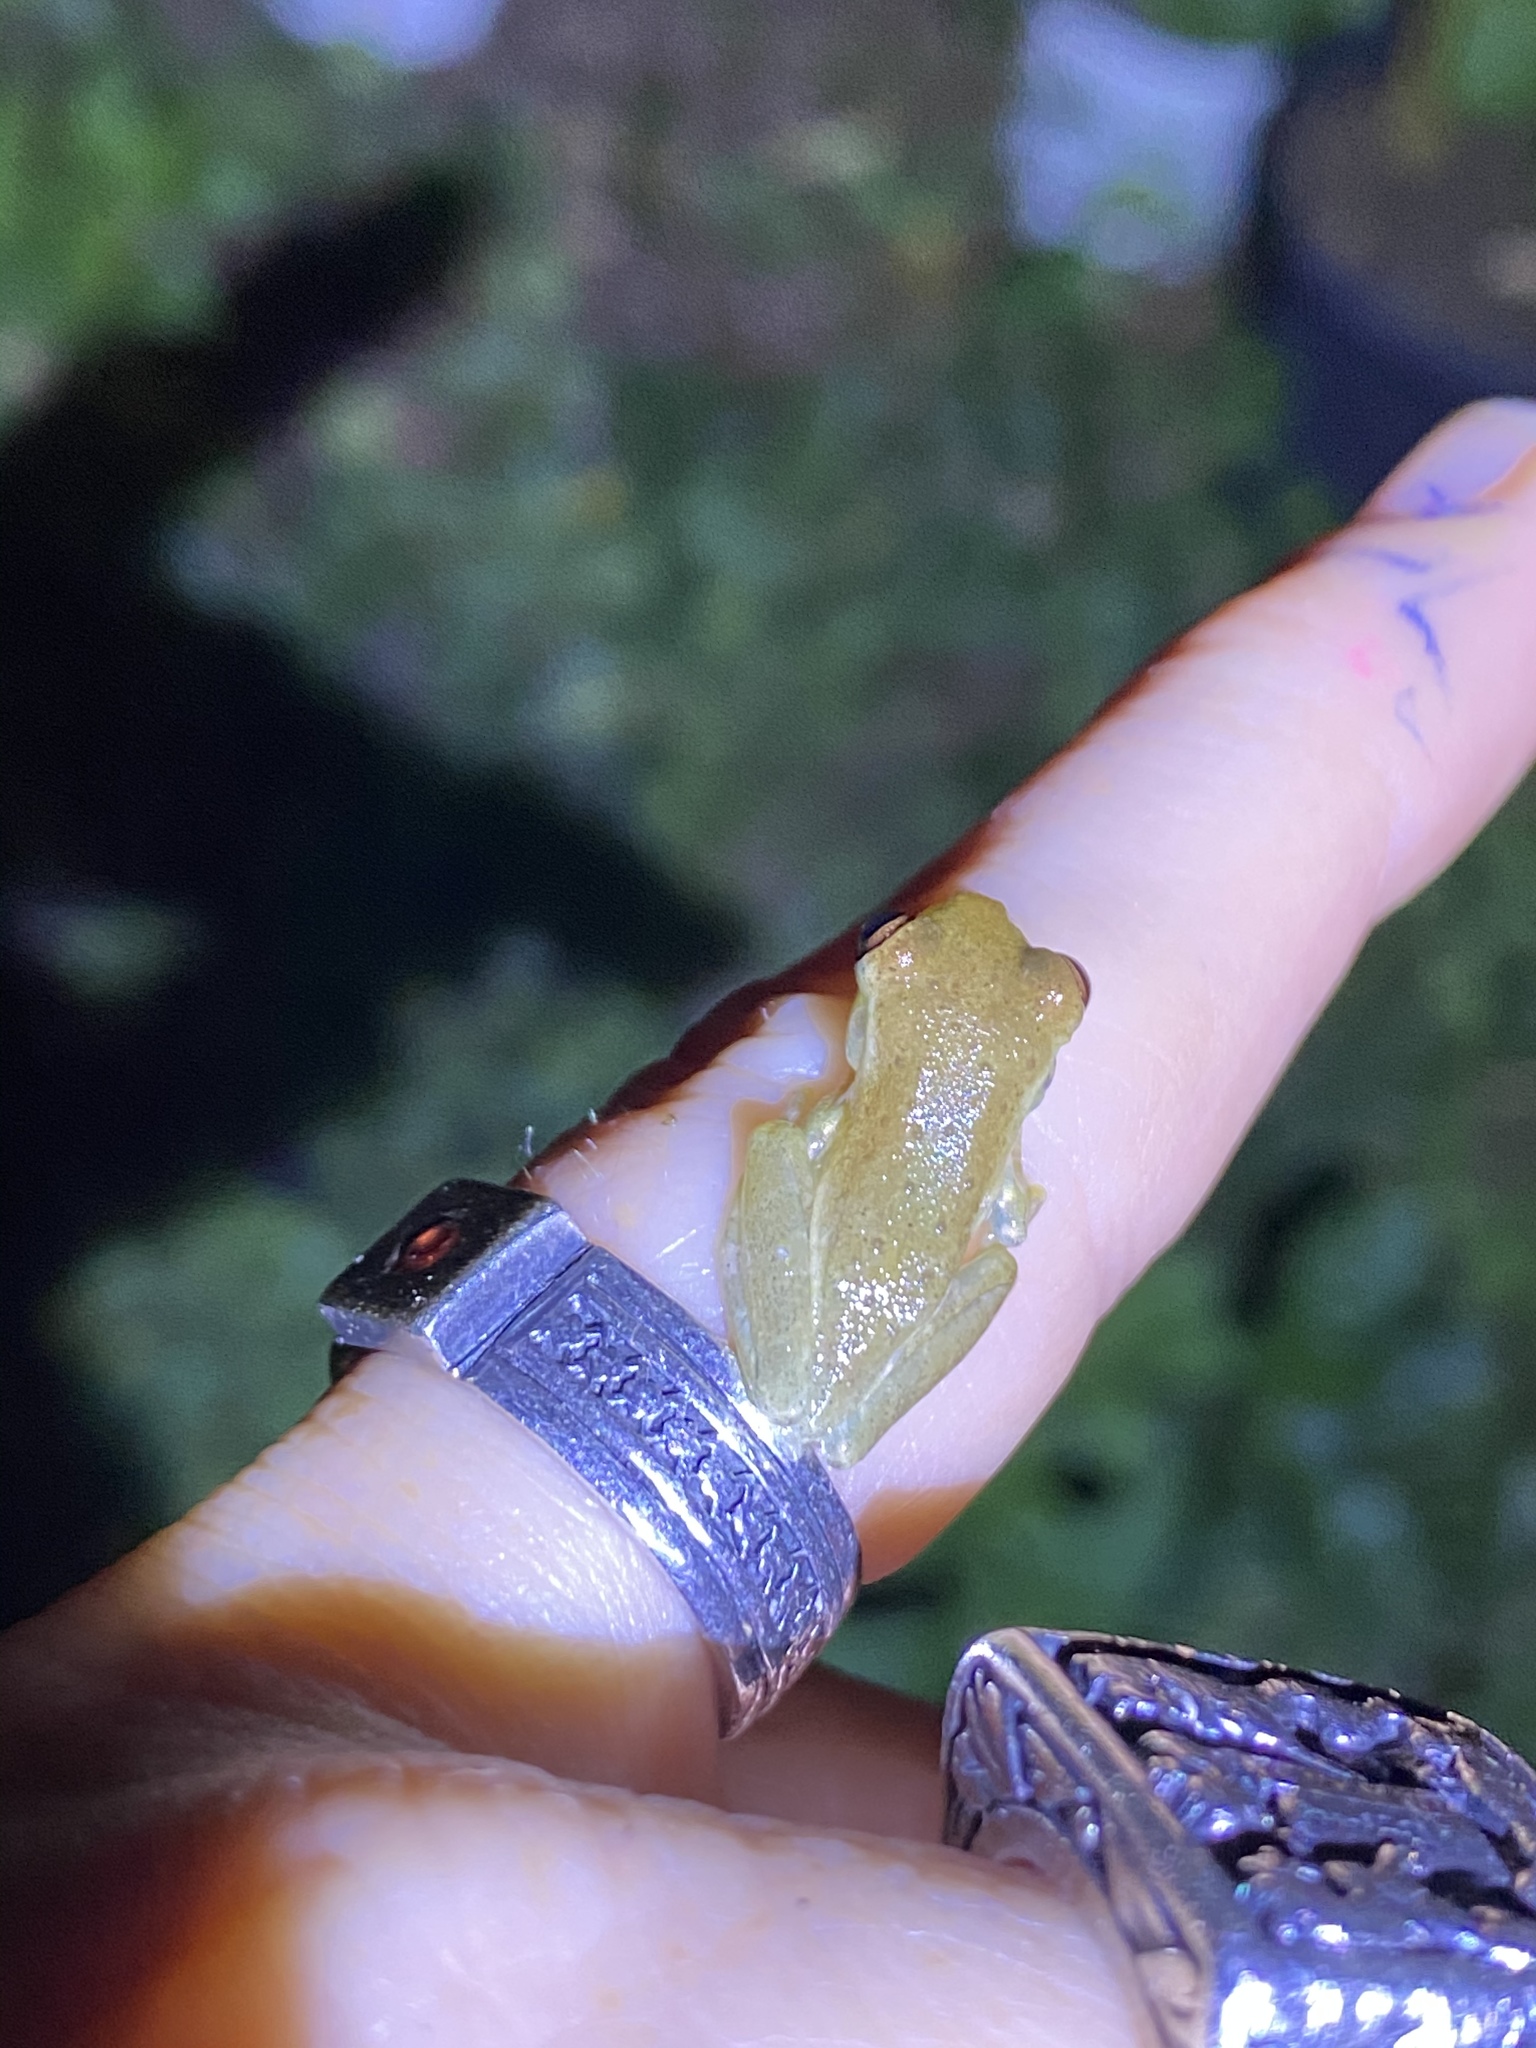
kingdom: Animalia
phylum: Chordata
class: Amphibia
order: Anura
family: Hylidae
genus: Osteopilus
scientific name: Osteopilus septentrionalis
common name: Cuban treefrog
